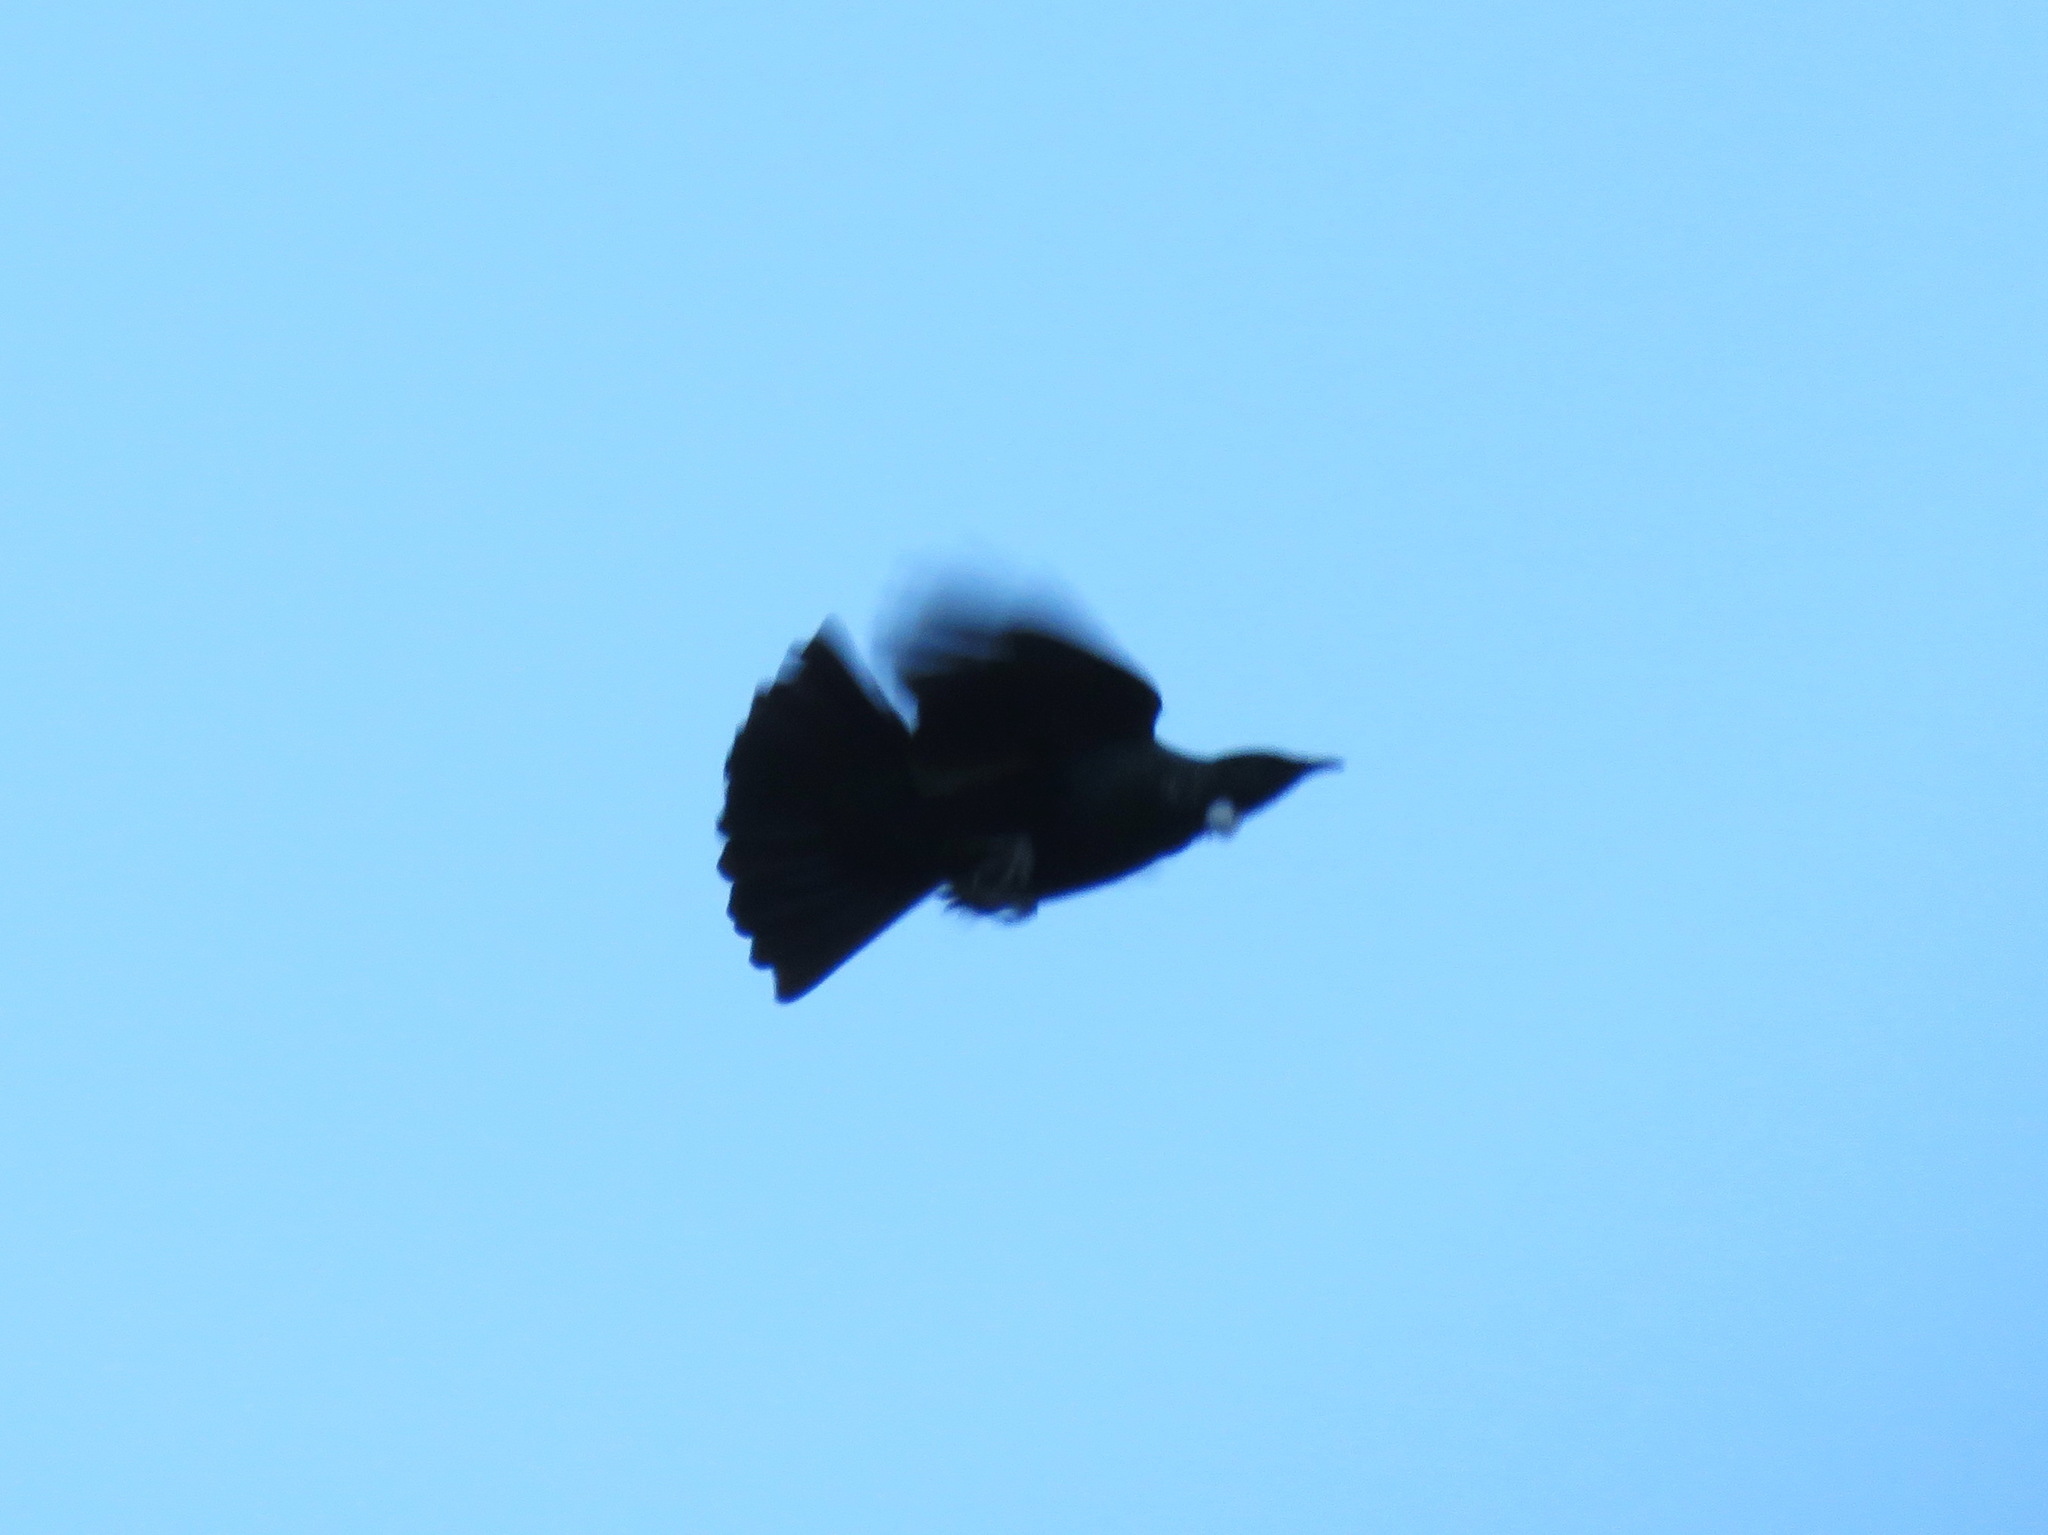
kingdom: Animalia
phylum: Chordata
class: Aves
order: Passeriformes
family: Meliphagidae
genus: Prosthemadera
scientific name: Prosthemadera novaeseelandiae
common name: Tui
